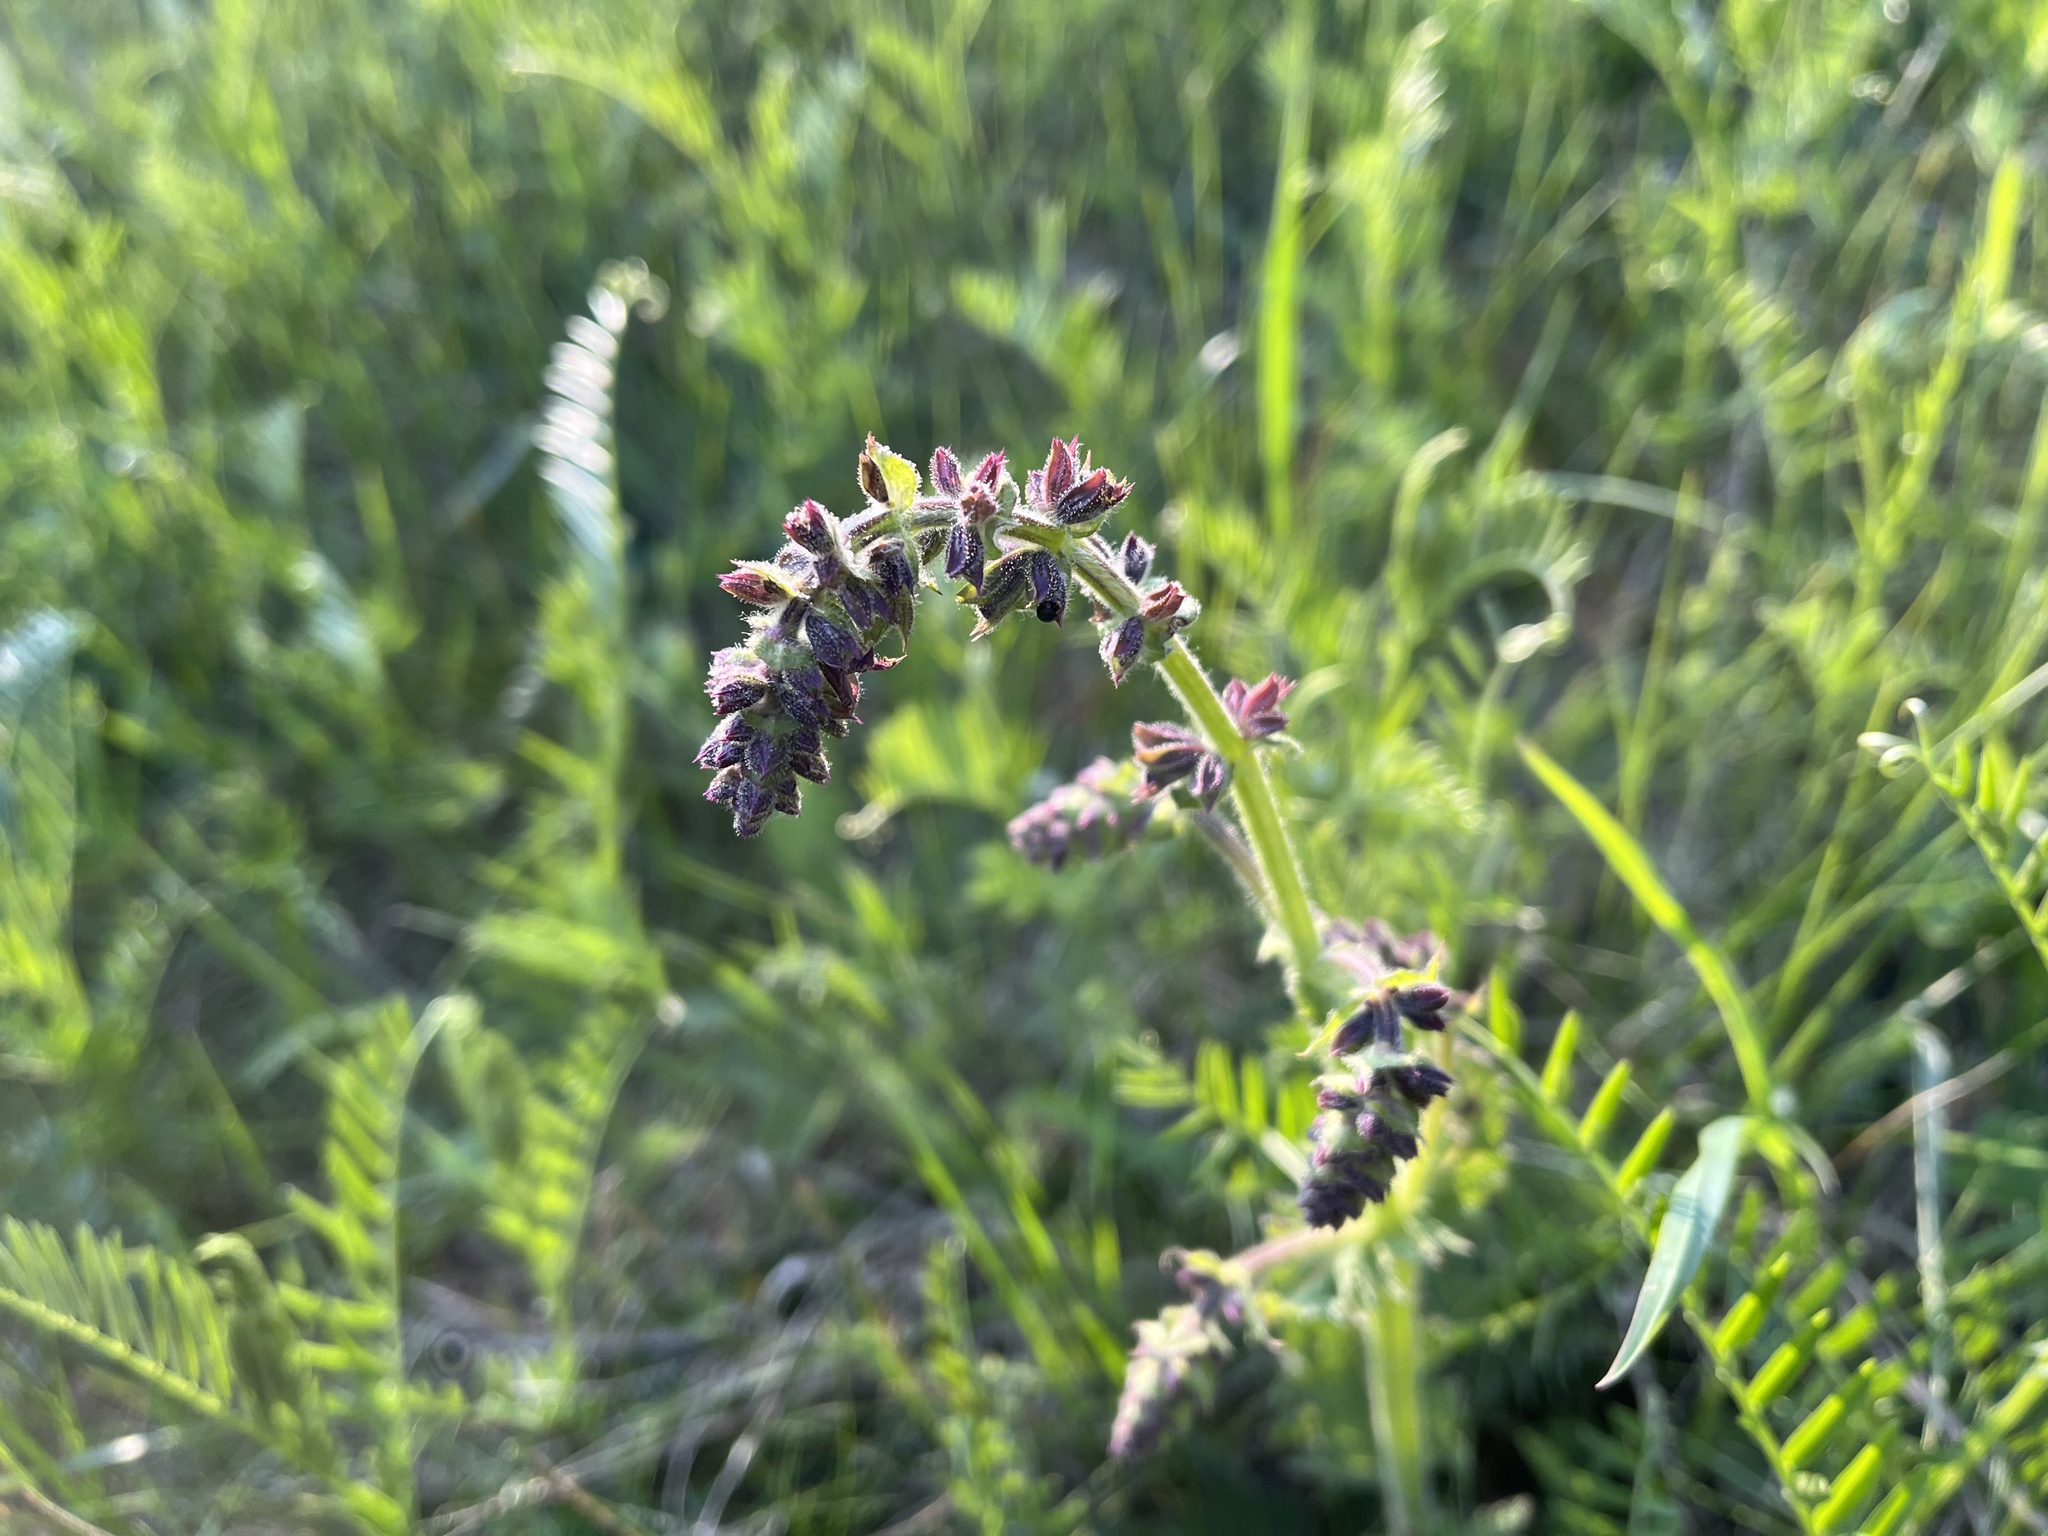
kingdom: Plantae
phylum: Tracheophyta
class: Magnoliopsida
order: Lamiales
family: Lamiaceae
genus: Salvia
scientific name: Salvia pratensis
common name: Meadow sage
